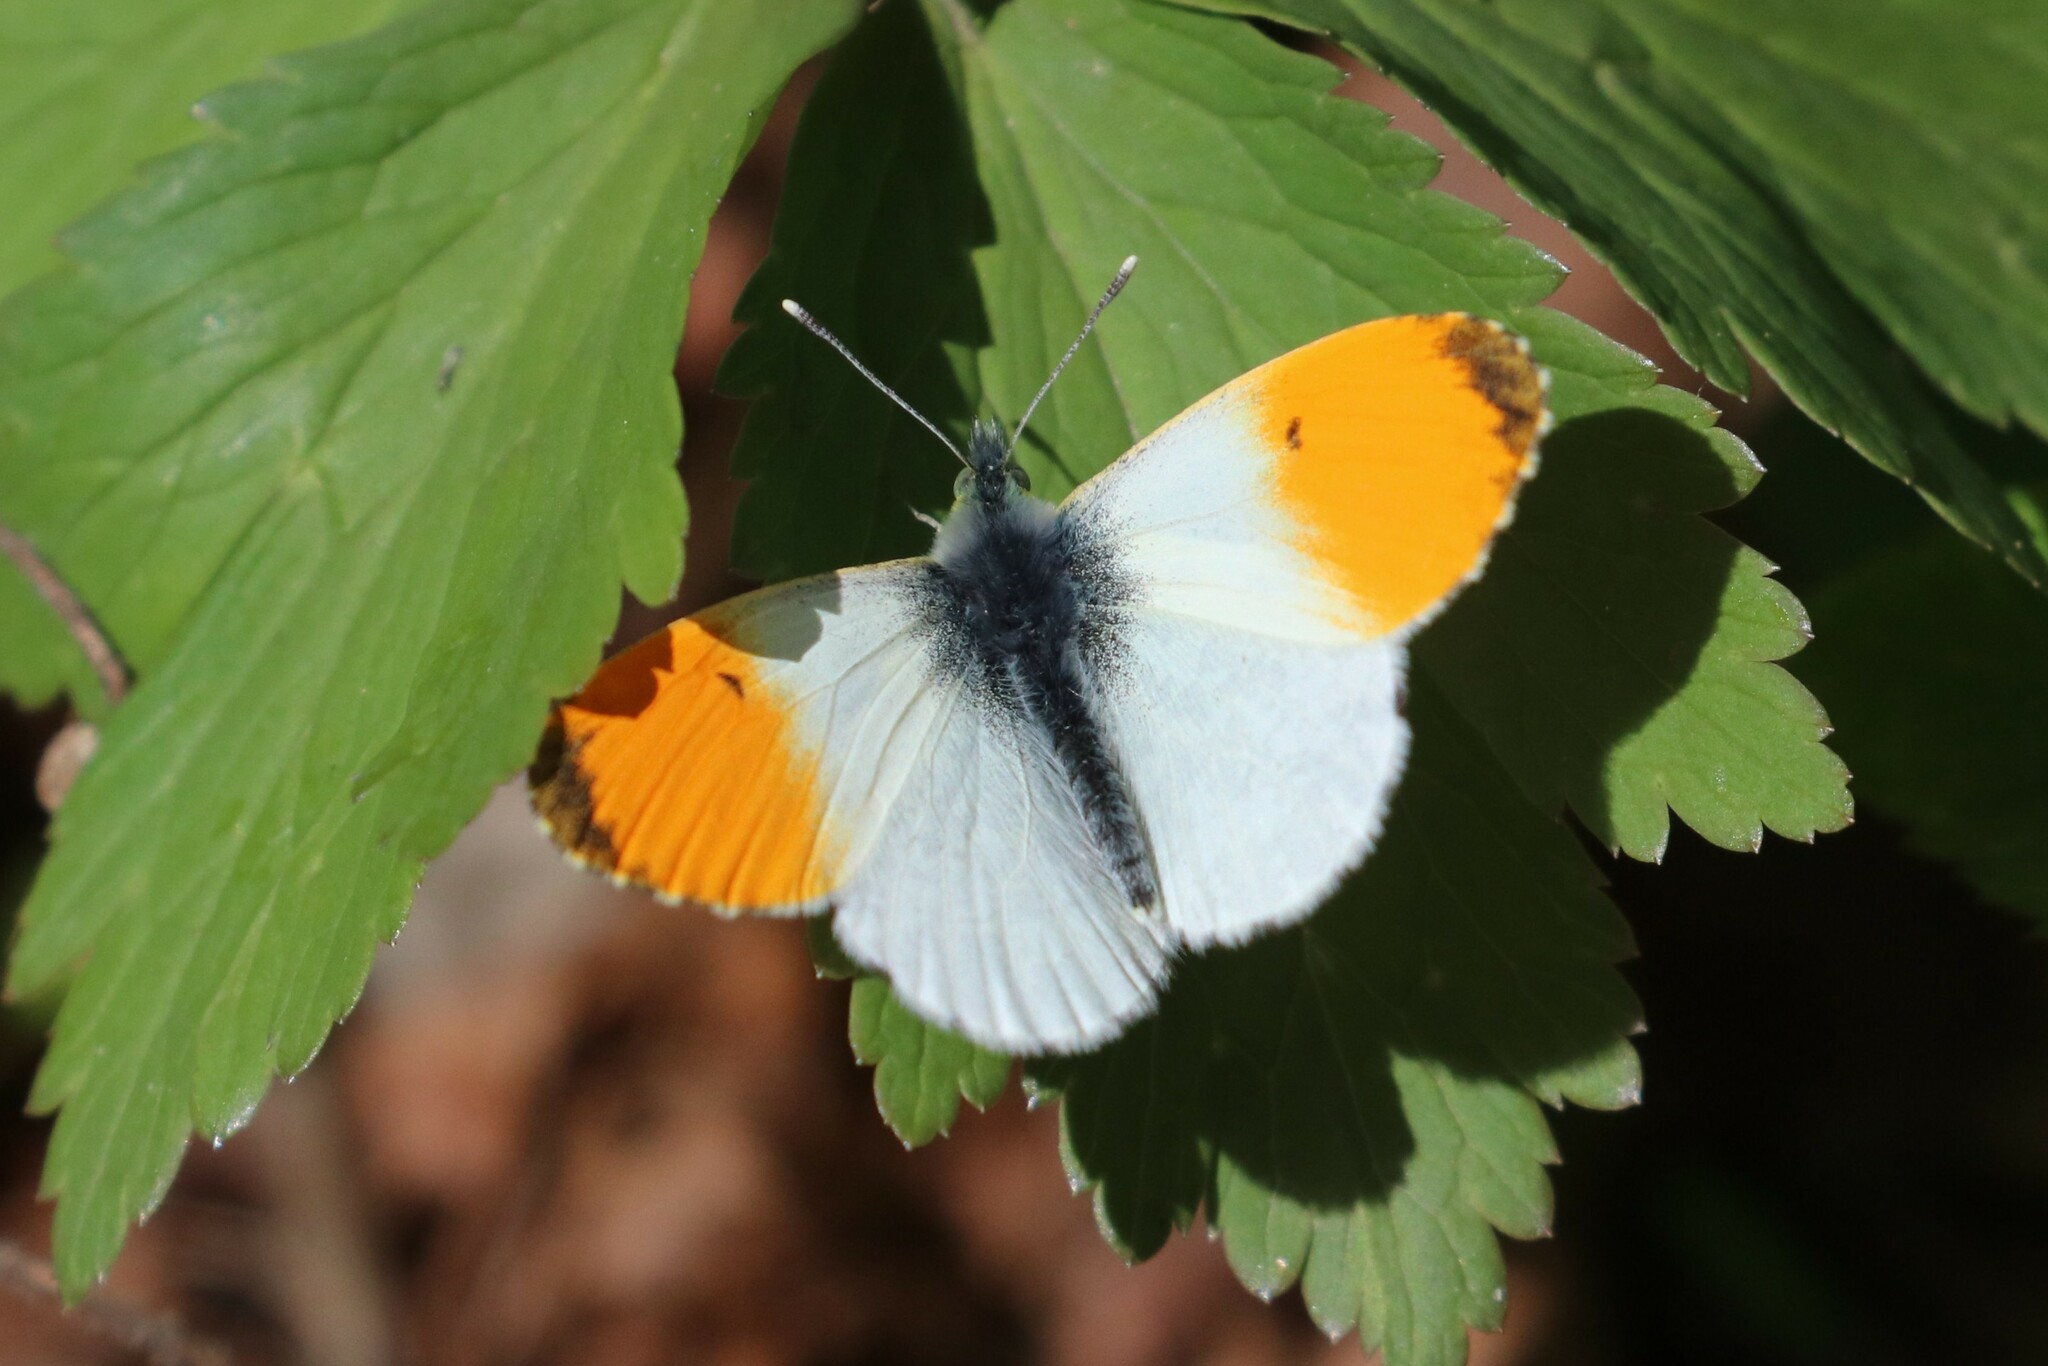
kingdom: Animalia
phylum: Arthropoda
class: Insecta
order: Lepidoptera
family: Pieridae
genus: Anthocharis
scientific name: Anthocharis cardamines
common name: Orange-tip
